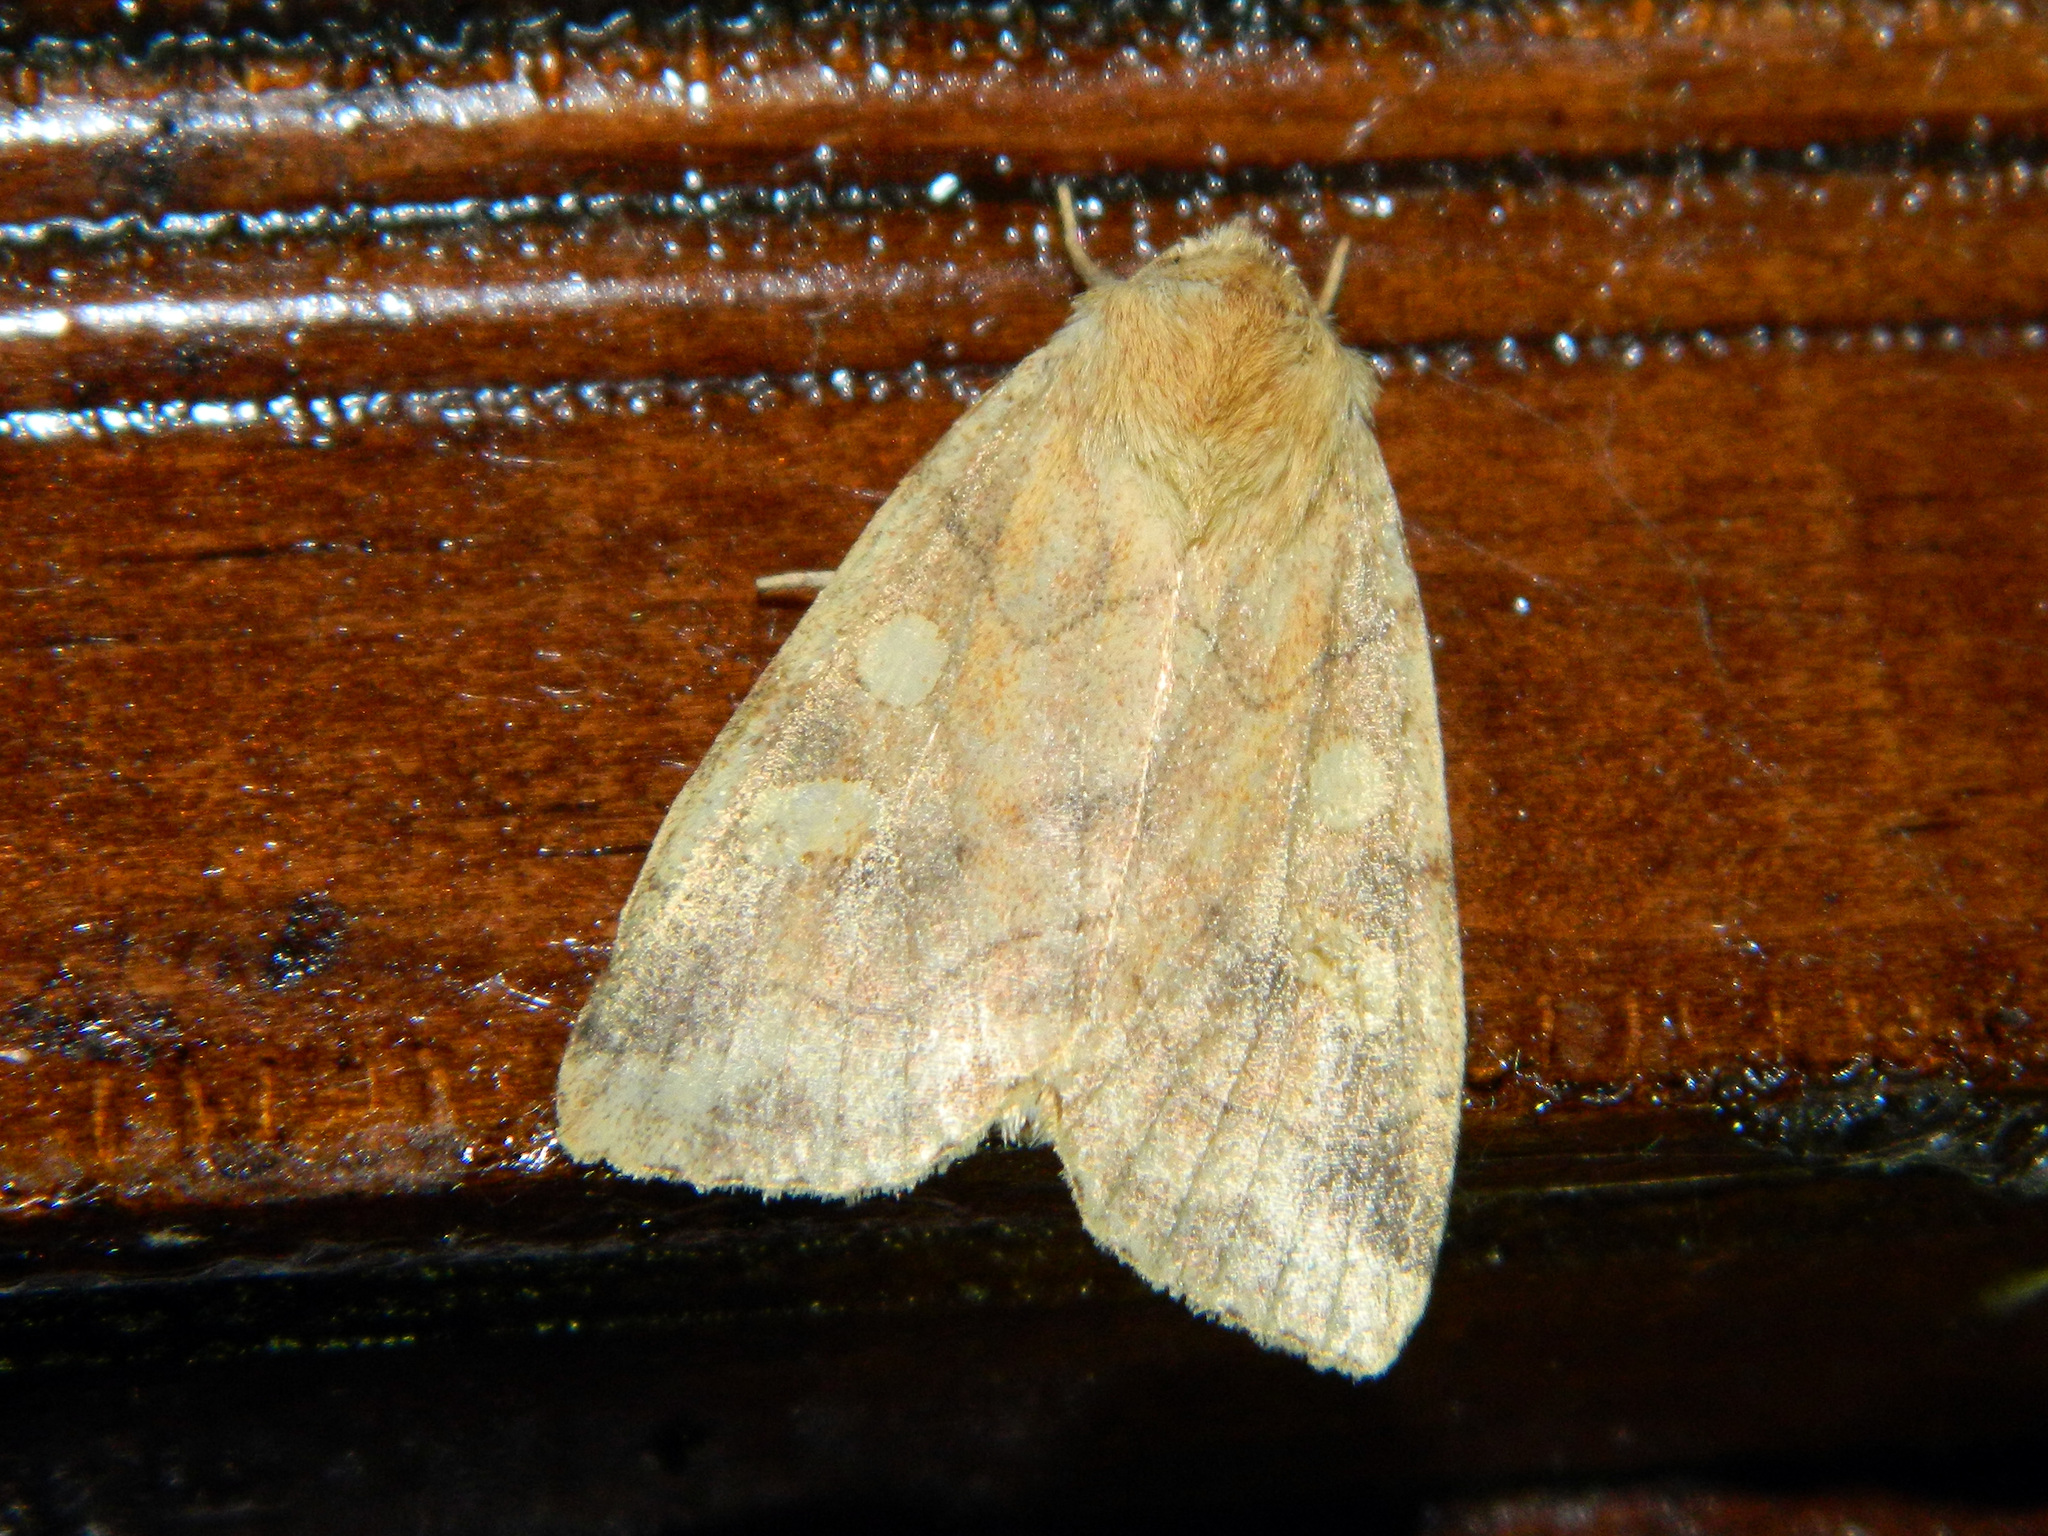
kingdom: Animalia
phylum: Arthropoda
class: Insecta
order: Lepidoptera
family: Noctuidae
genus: Enargia
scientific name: Enargia decolor
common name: Aspen twoleaf tier moth
